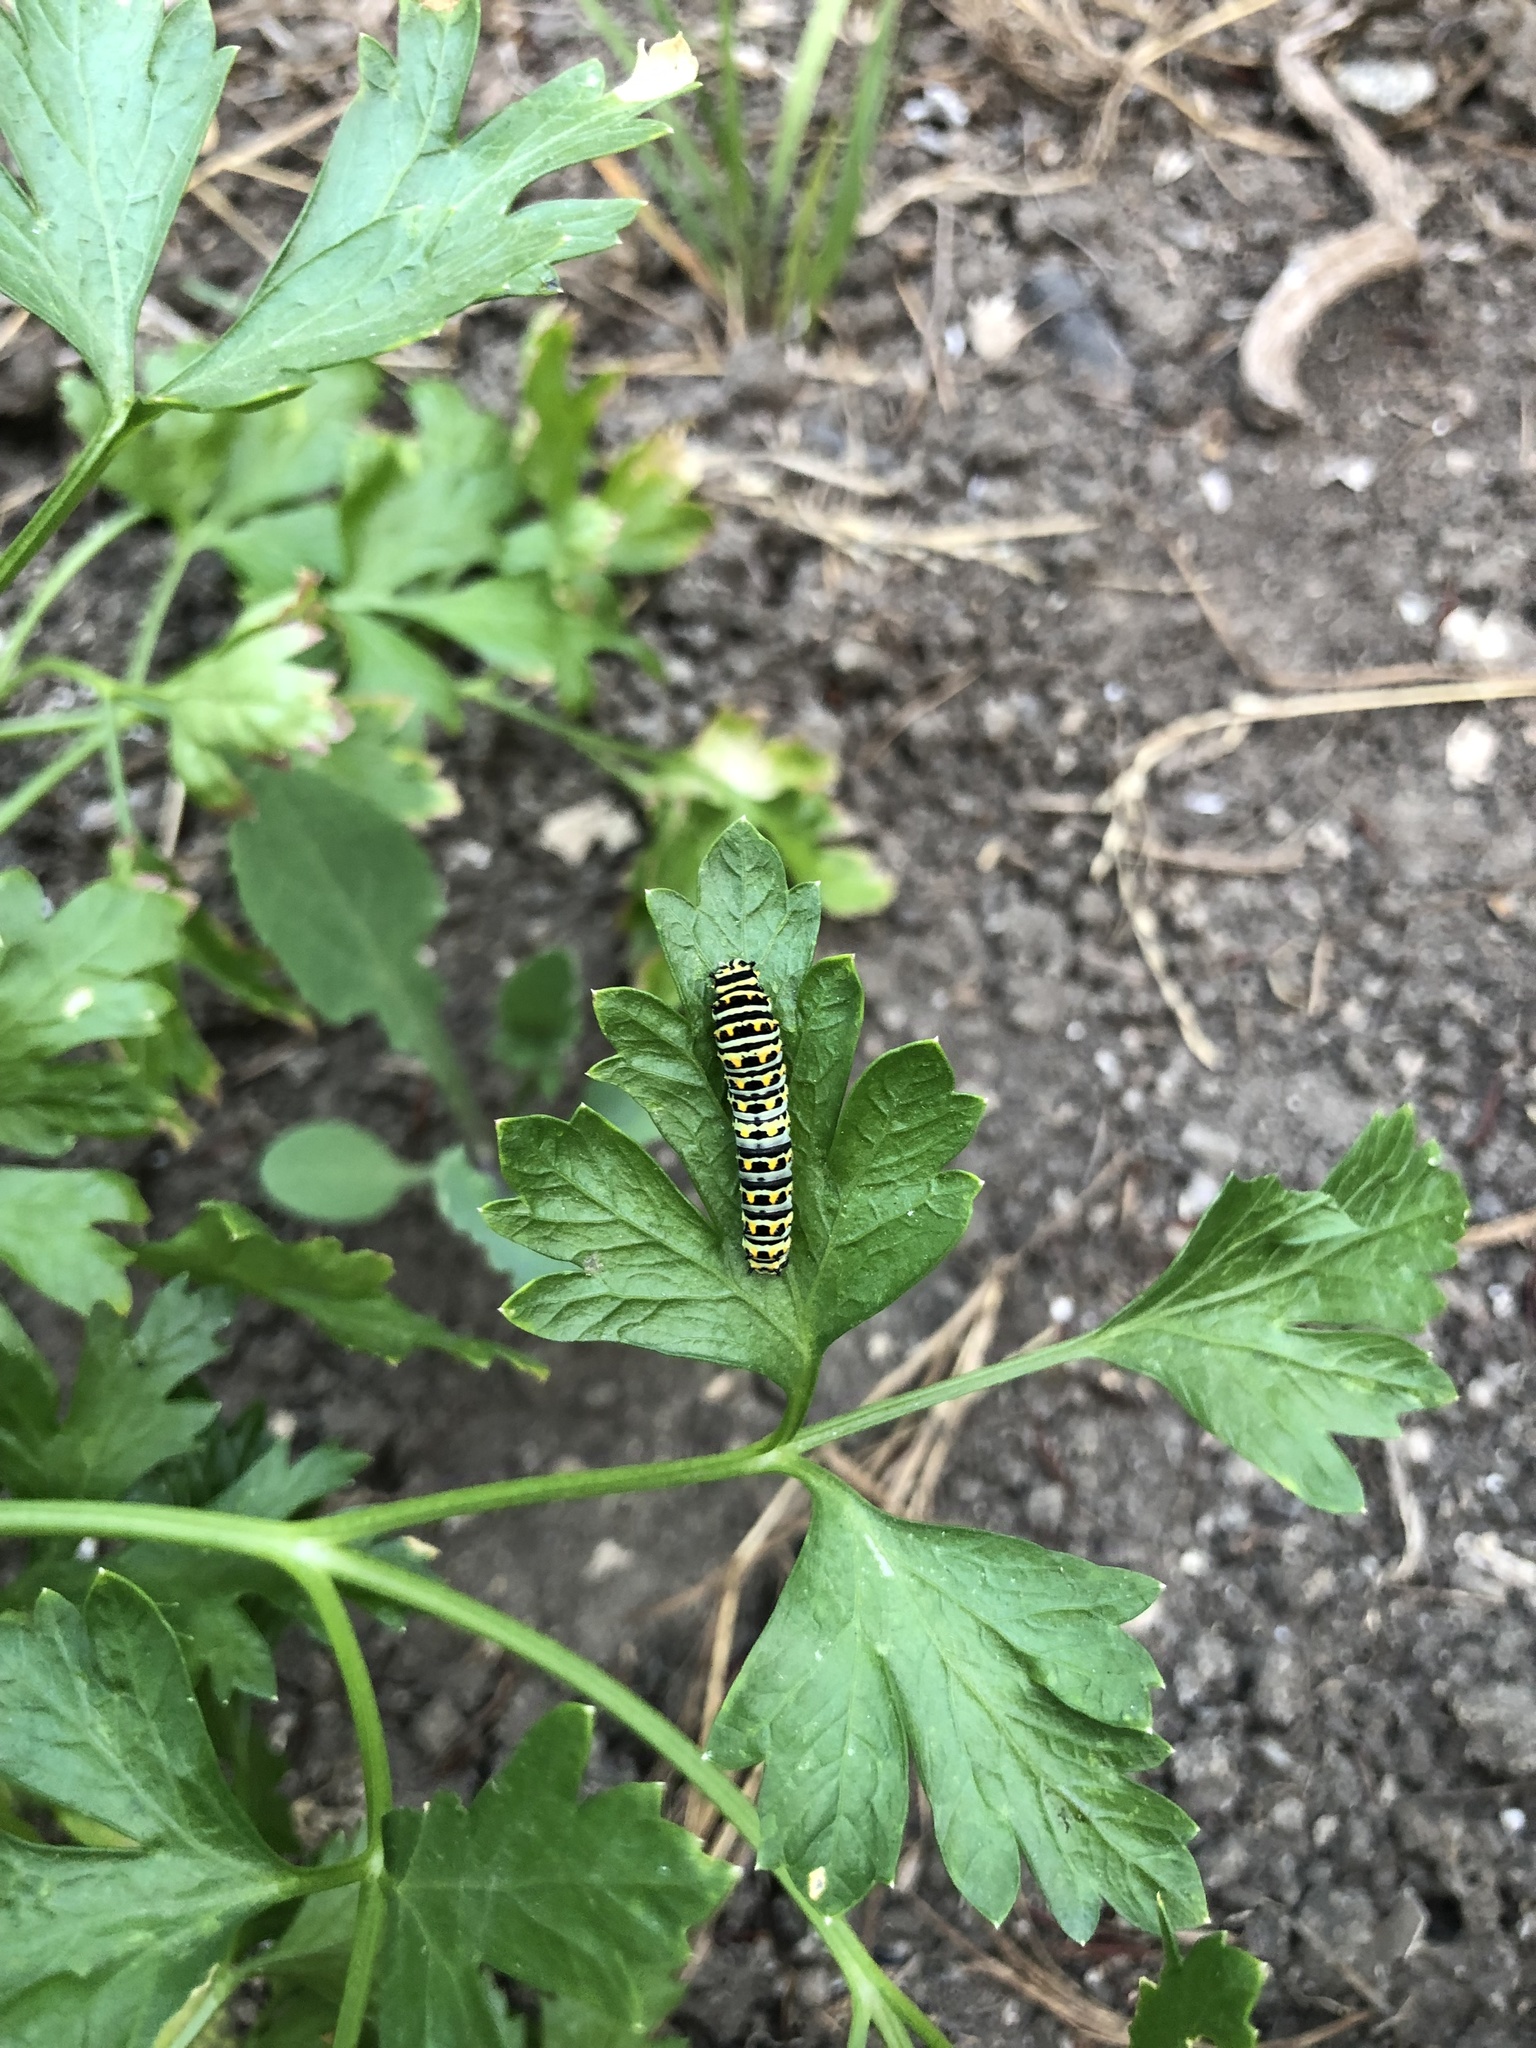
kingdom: Animalia
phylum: Arthropoda
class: Insecta
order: Lepidoptera
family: Papilionidae
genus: Papilio
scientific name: Papilio zelicaon
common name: Anise swallowtail
